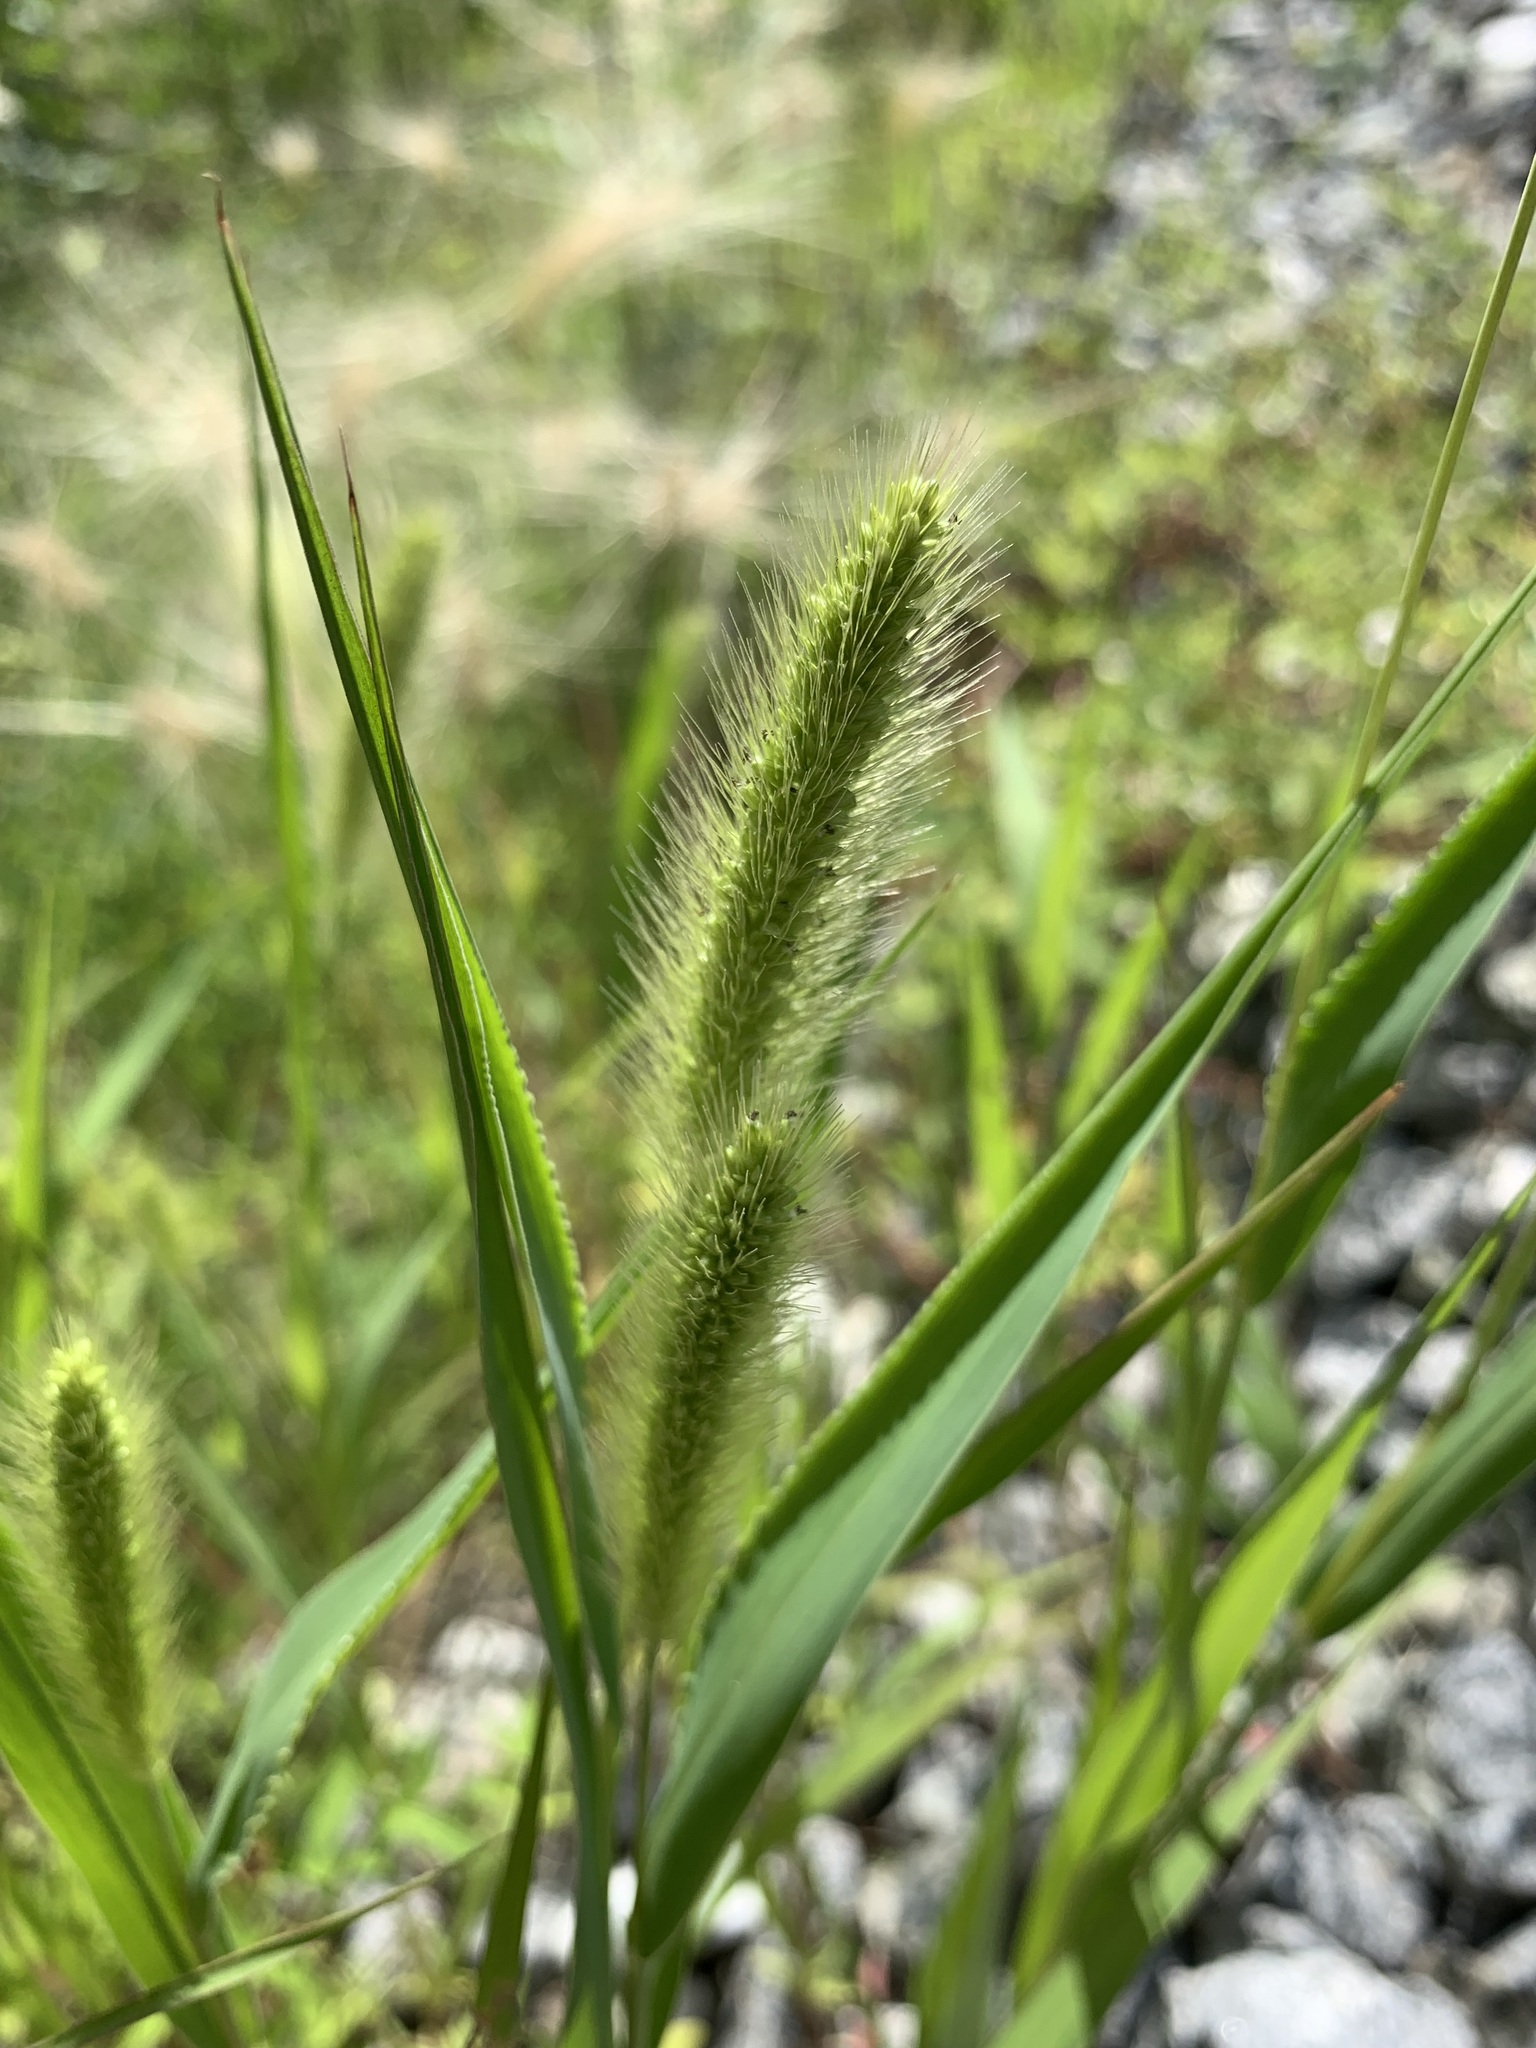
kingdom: Plantae
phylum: Tracheophyta
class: Liliopsida
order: Poales
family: Poaceae
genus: Setaria
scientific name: Setaria viridis
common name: Green bristlegrass
